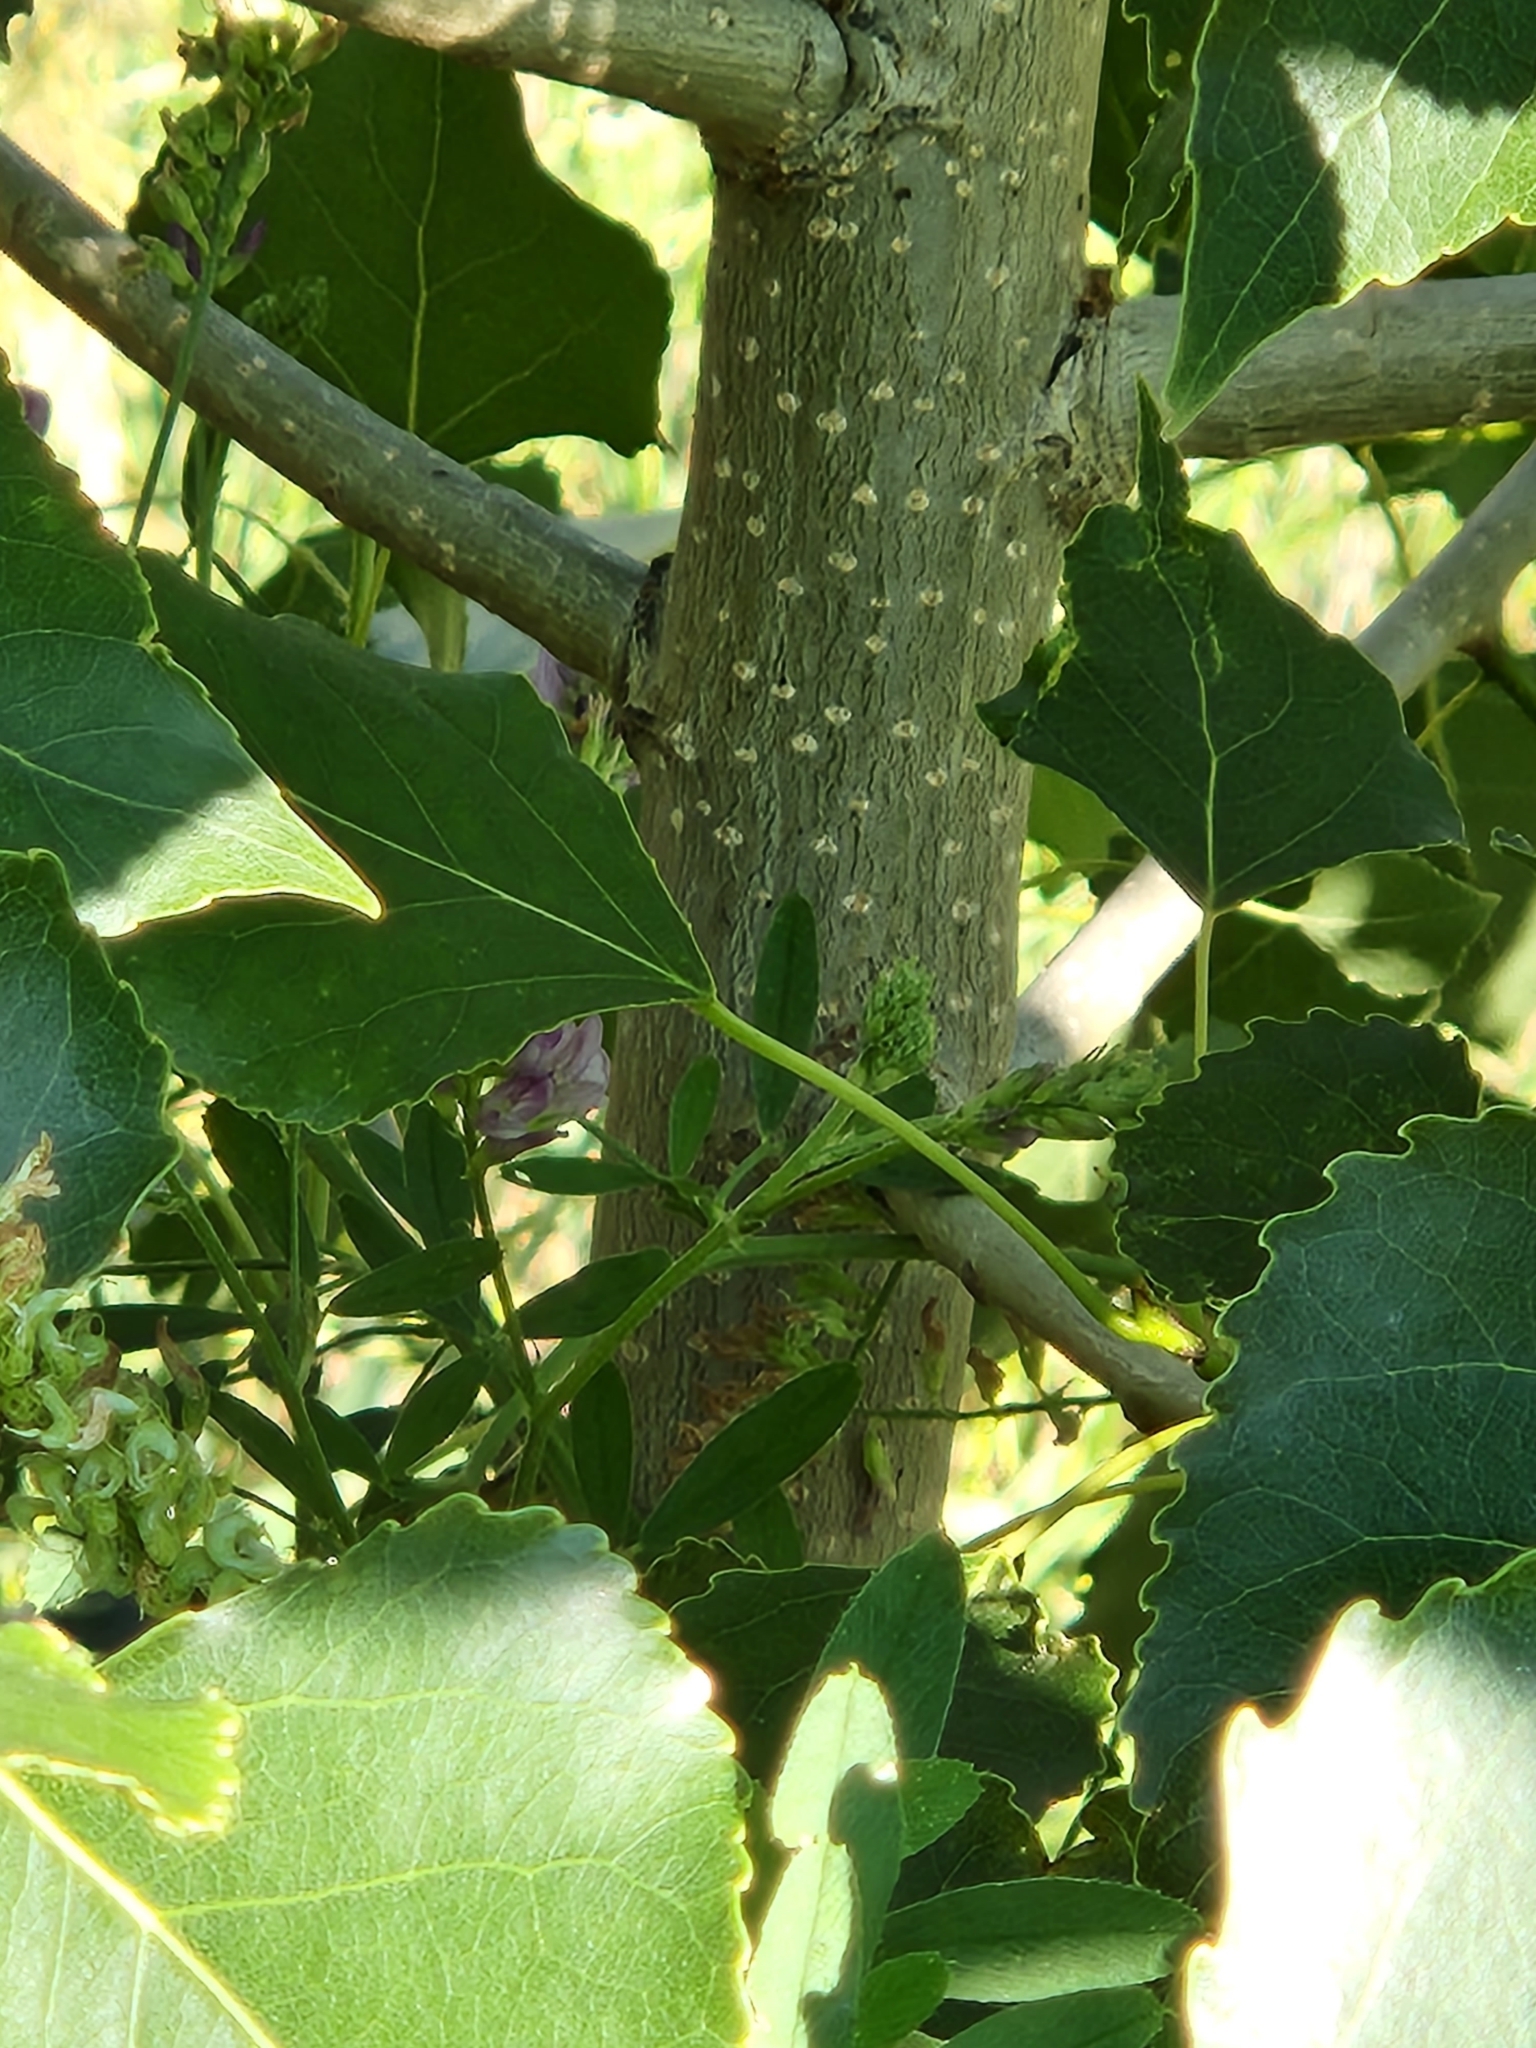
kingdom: Plantae
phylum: Tracheophyta
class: Magnoliopsida
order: Malpighiales
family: Salicaceae
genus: Populus
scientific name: Populus nigra
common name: Black poplar
